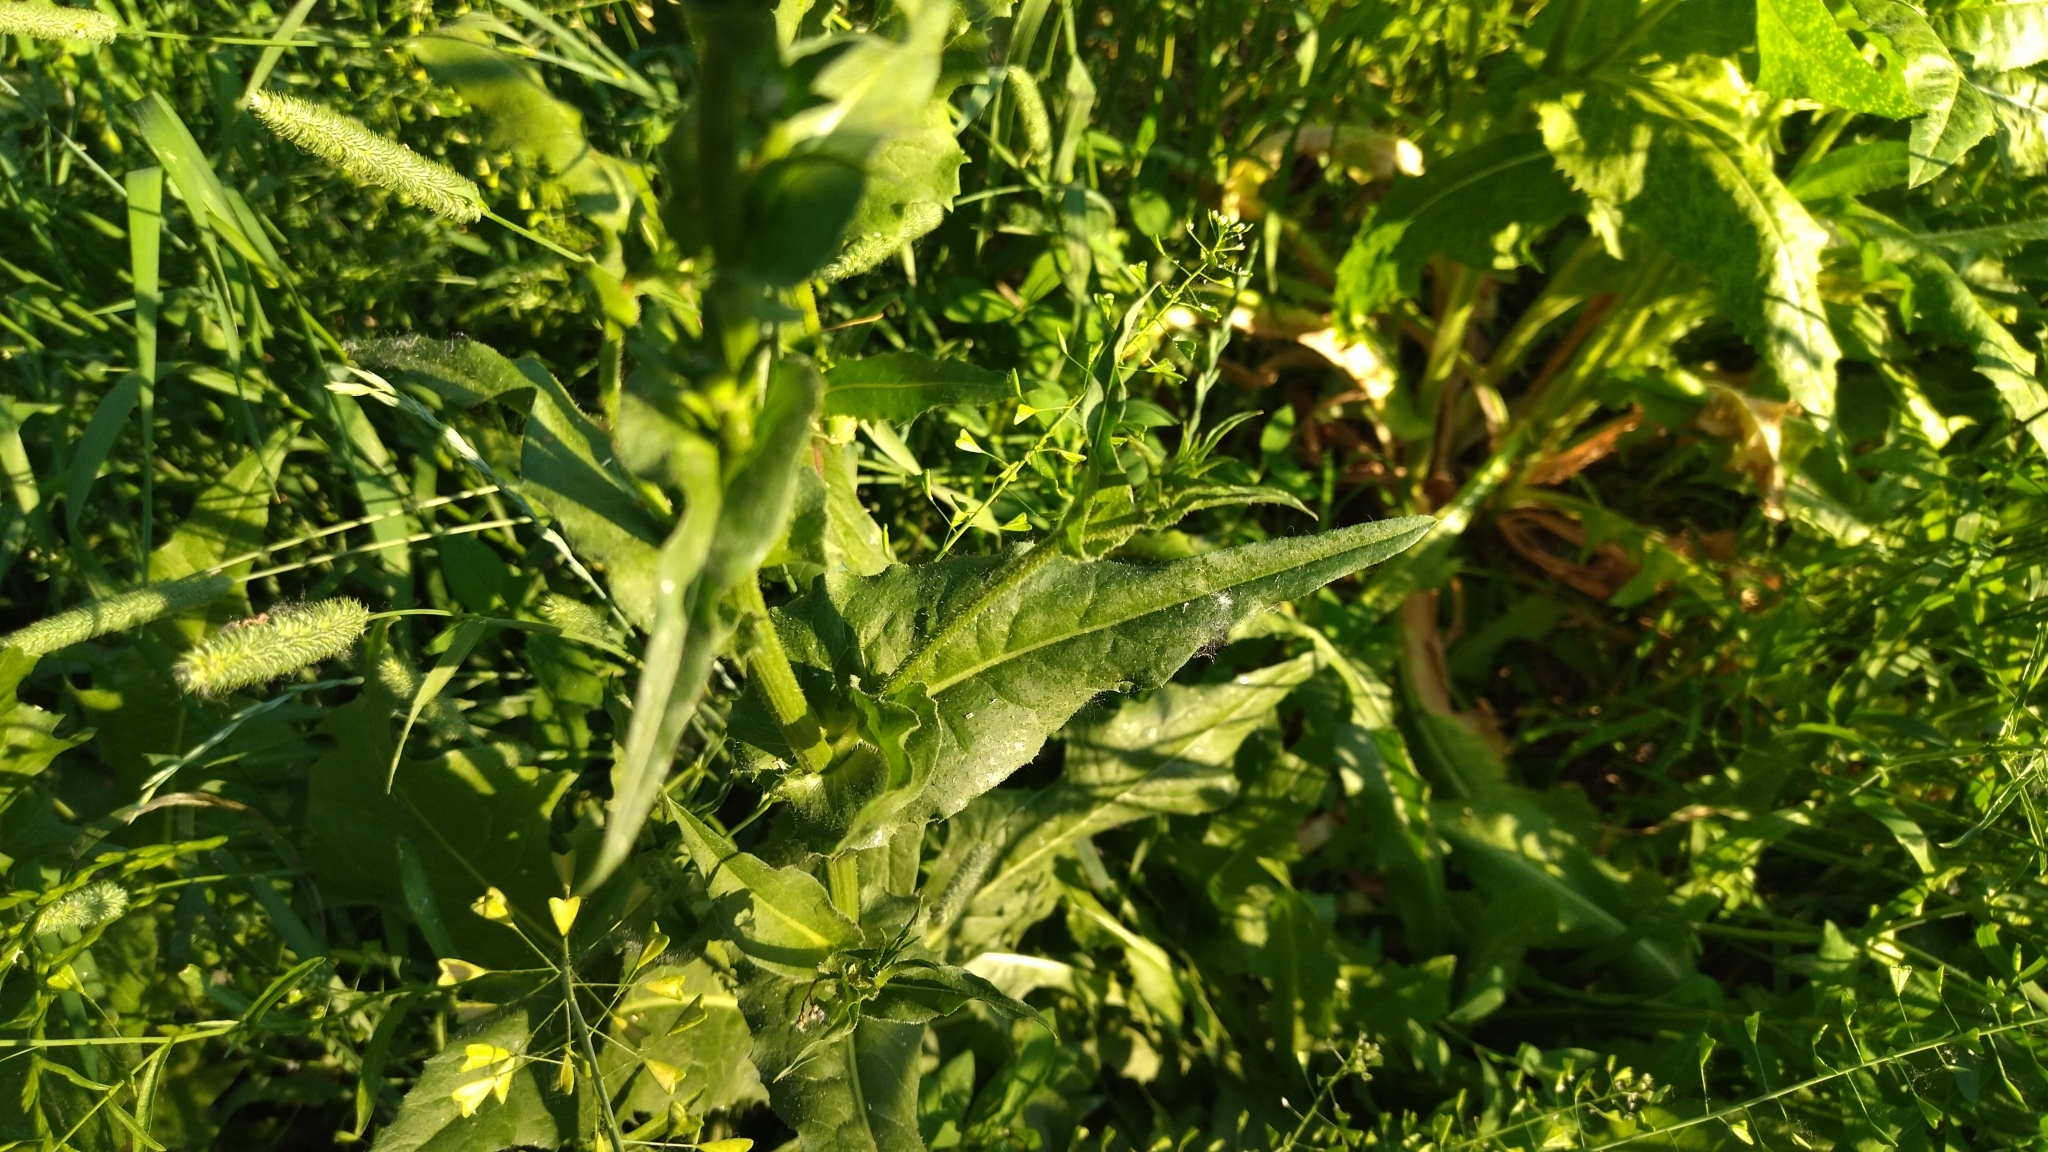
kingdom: Plantae
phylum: Tracheophyta
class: Magnoliopsida
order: Asterales
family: Asteraceae
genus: Cichorium
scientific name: Cichorium intybus
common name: Chicory
